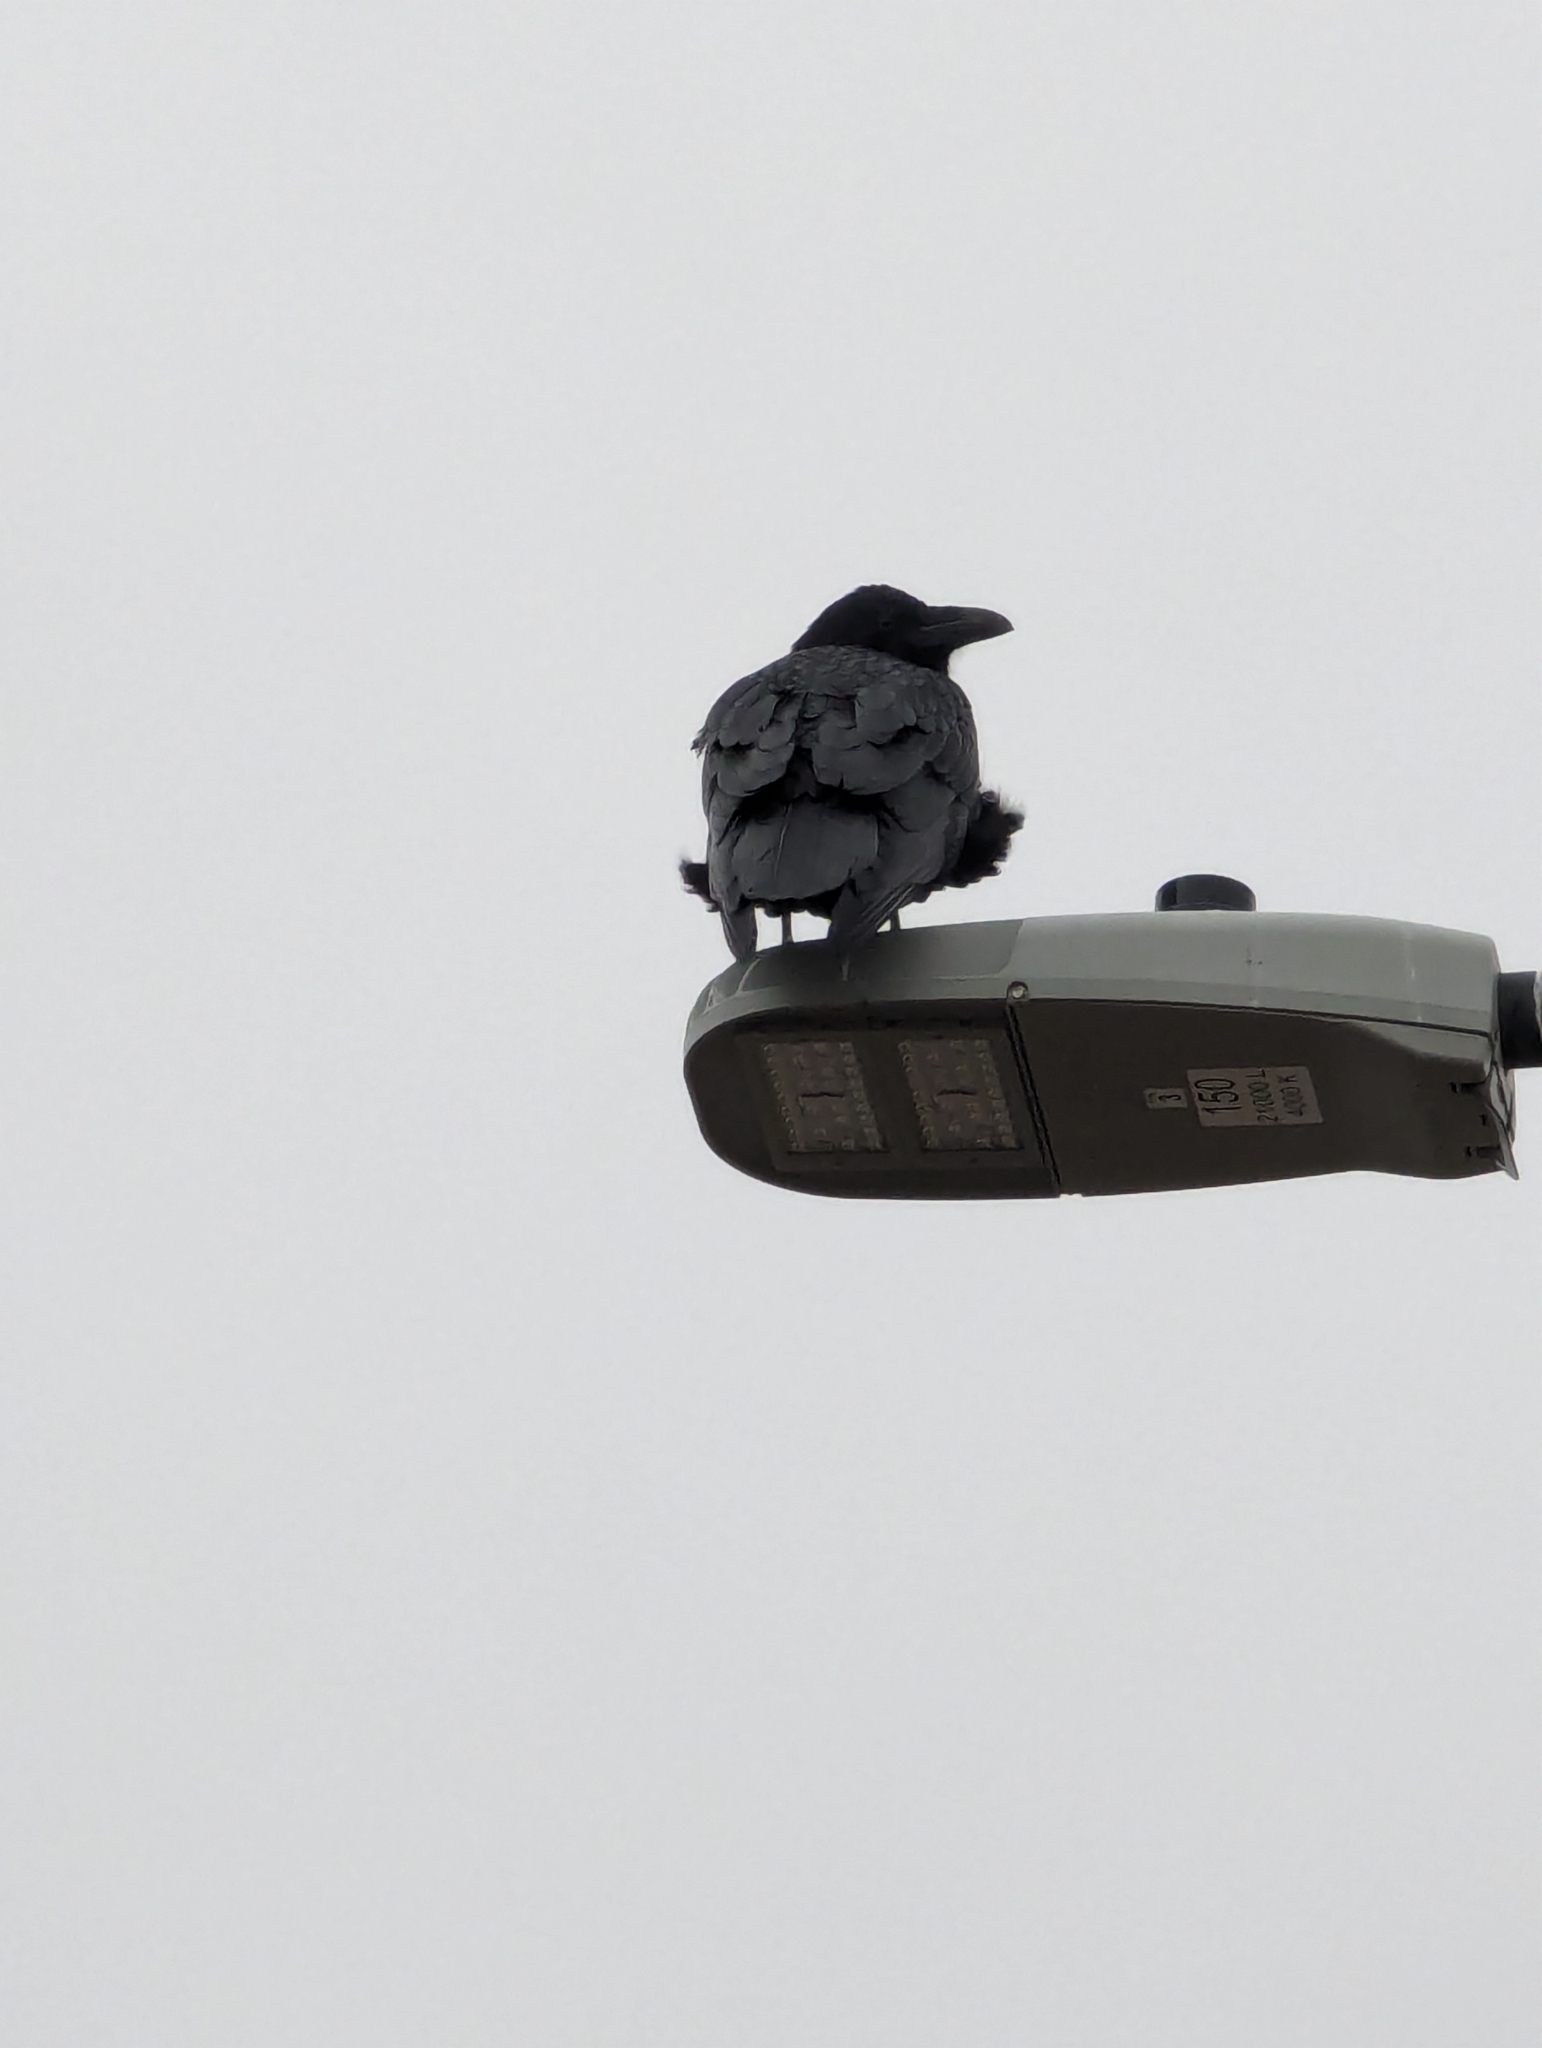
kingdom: Animalia
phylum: Chordata
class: Aves
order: Passeriformes
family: Corvidae
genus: Corvus
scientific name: Corvus corax
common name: Common raven
